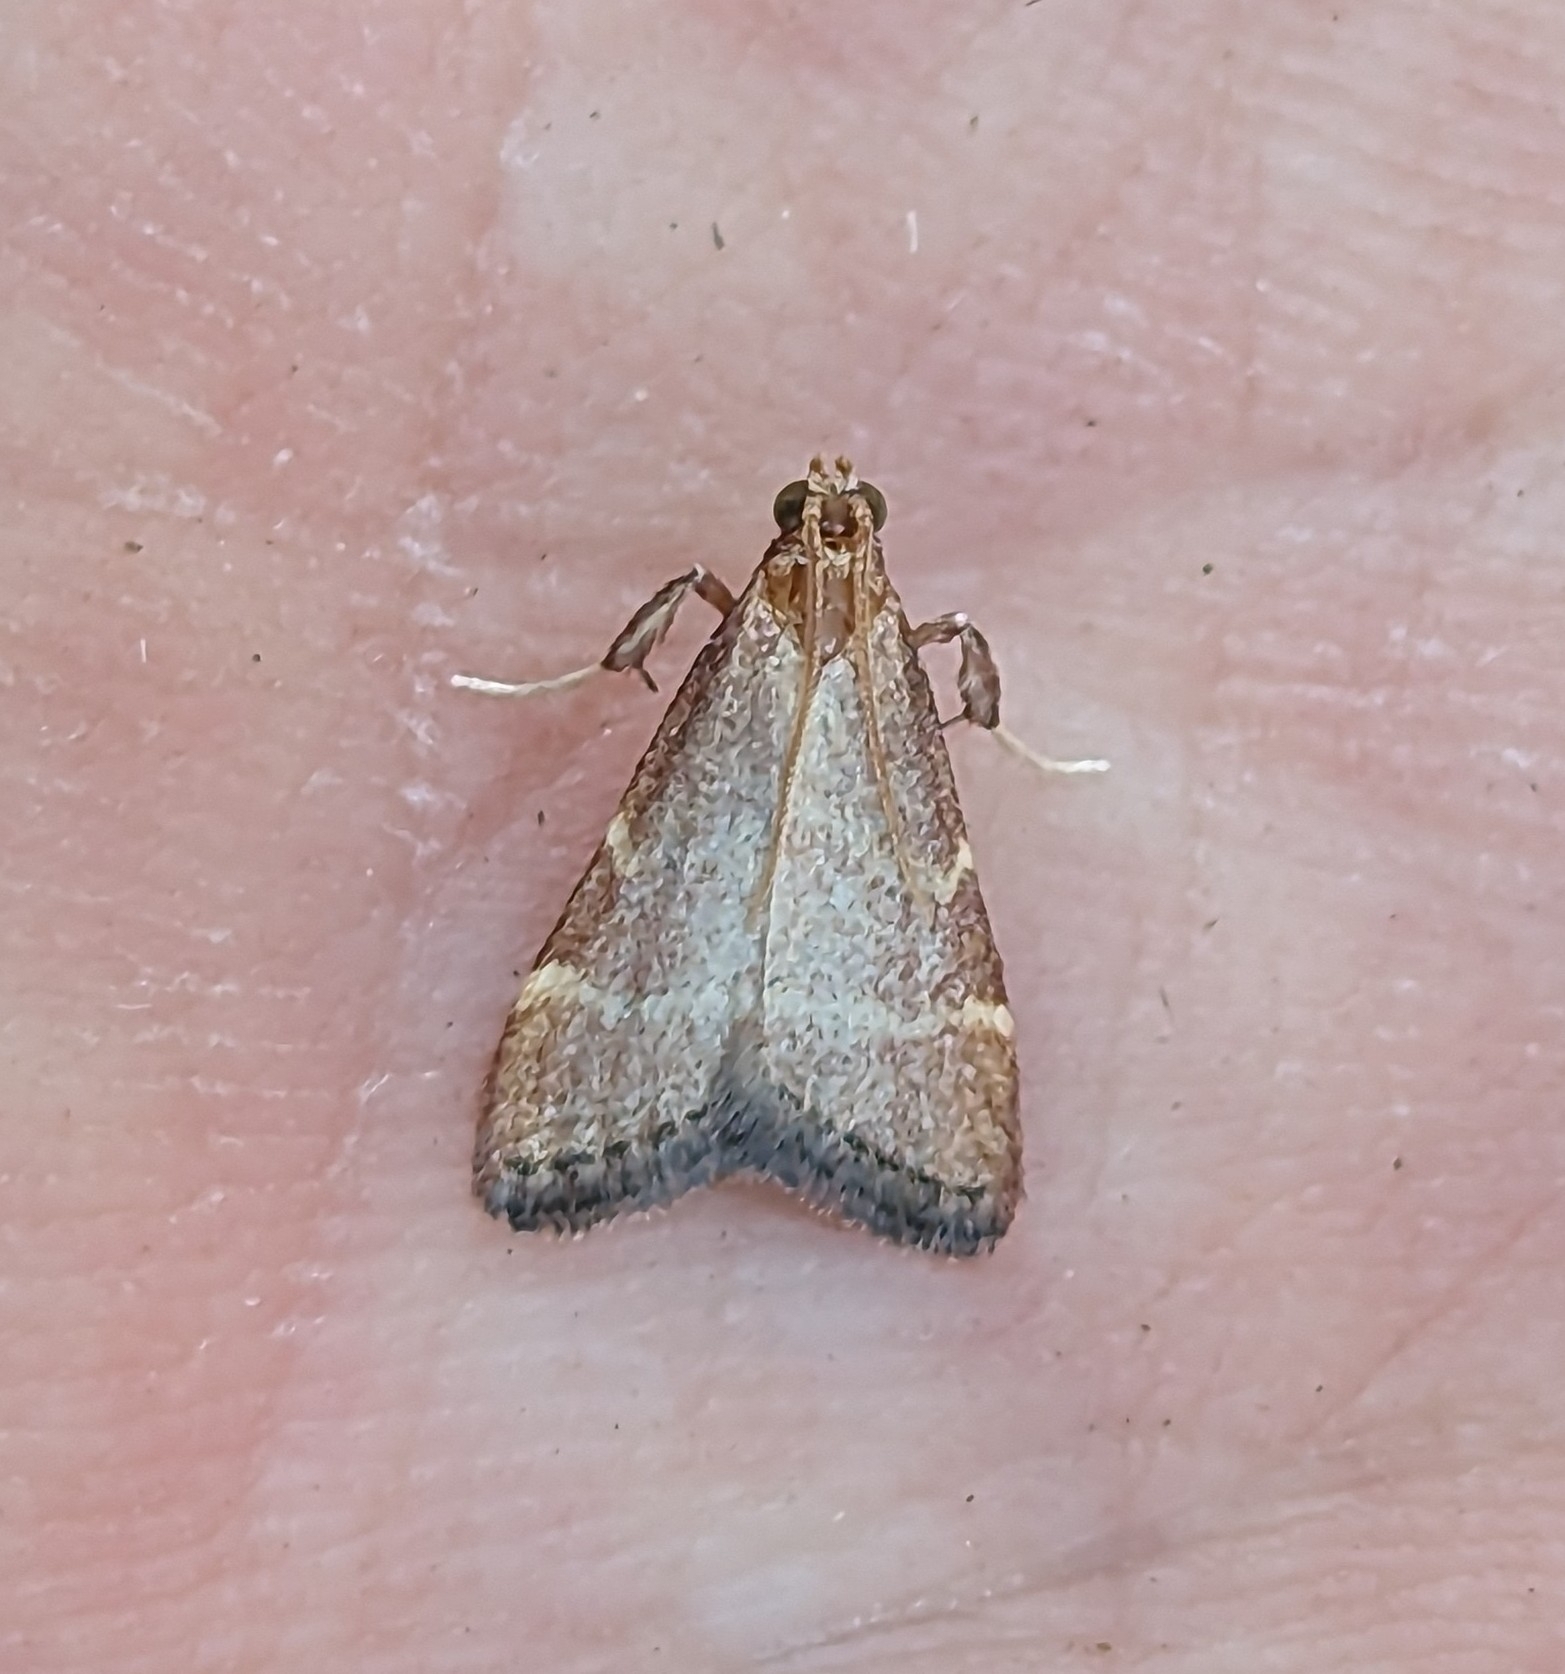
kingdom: Animalia
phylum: Arthropoda
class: Insecta
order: Lepidoptera
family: Pyralidae
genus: Arta
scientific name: Arta epicoenalis
